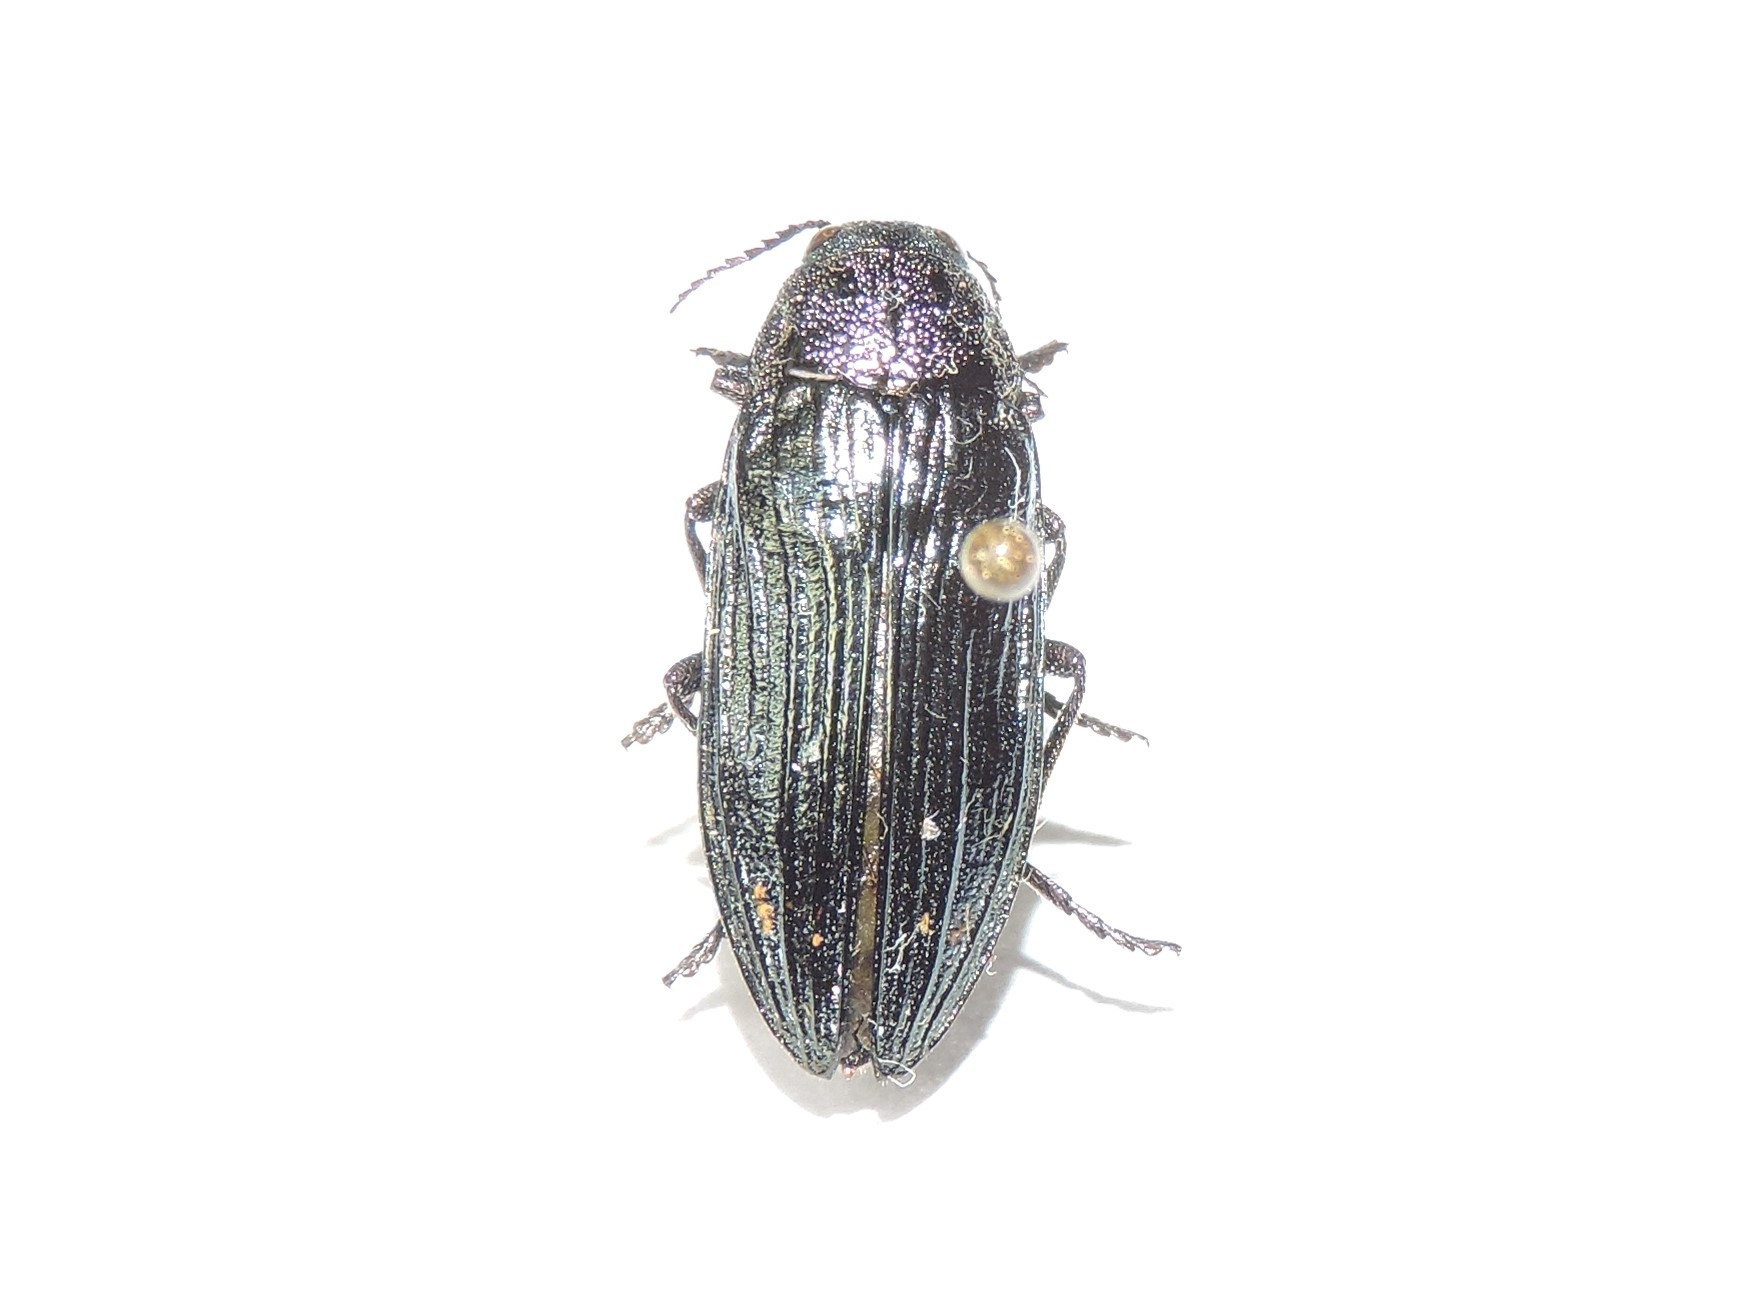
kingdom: Animalia
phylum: Arthropoda
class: Insecta
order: Coleoptera
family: Buprestidae
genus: Buprestis
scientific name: Buprestis strigosa
